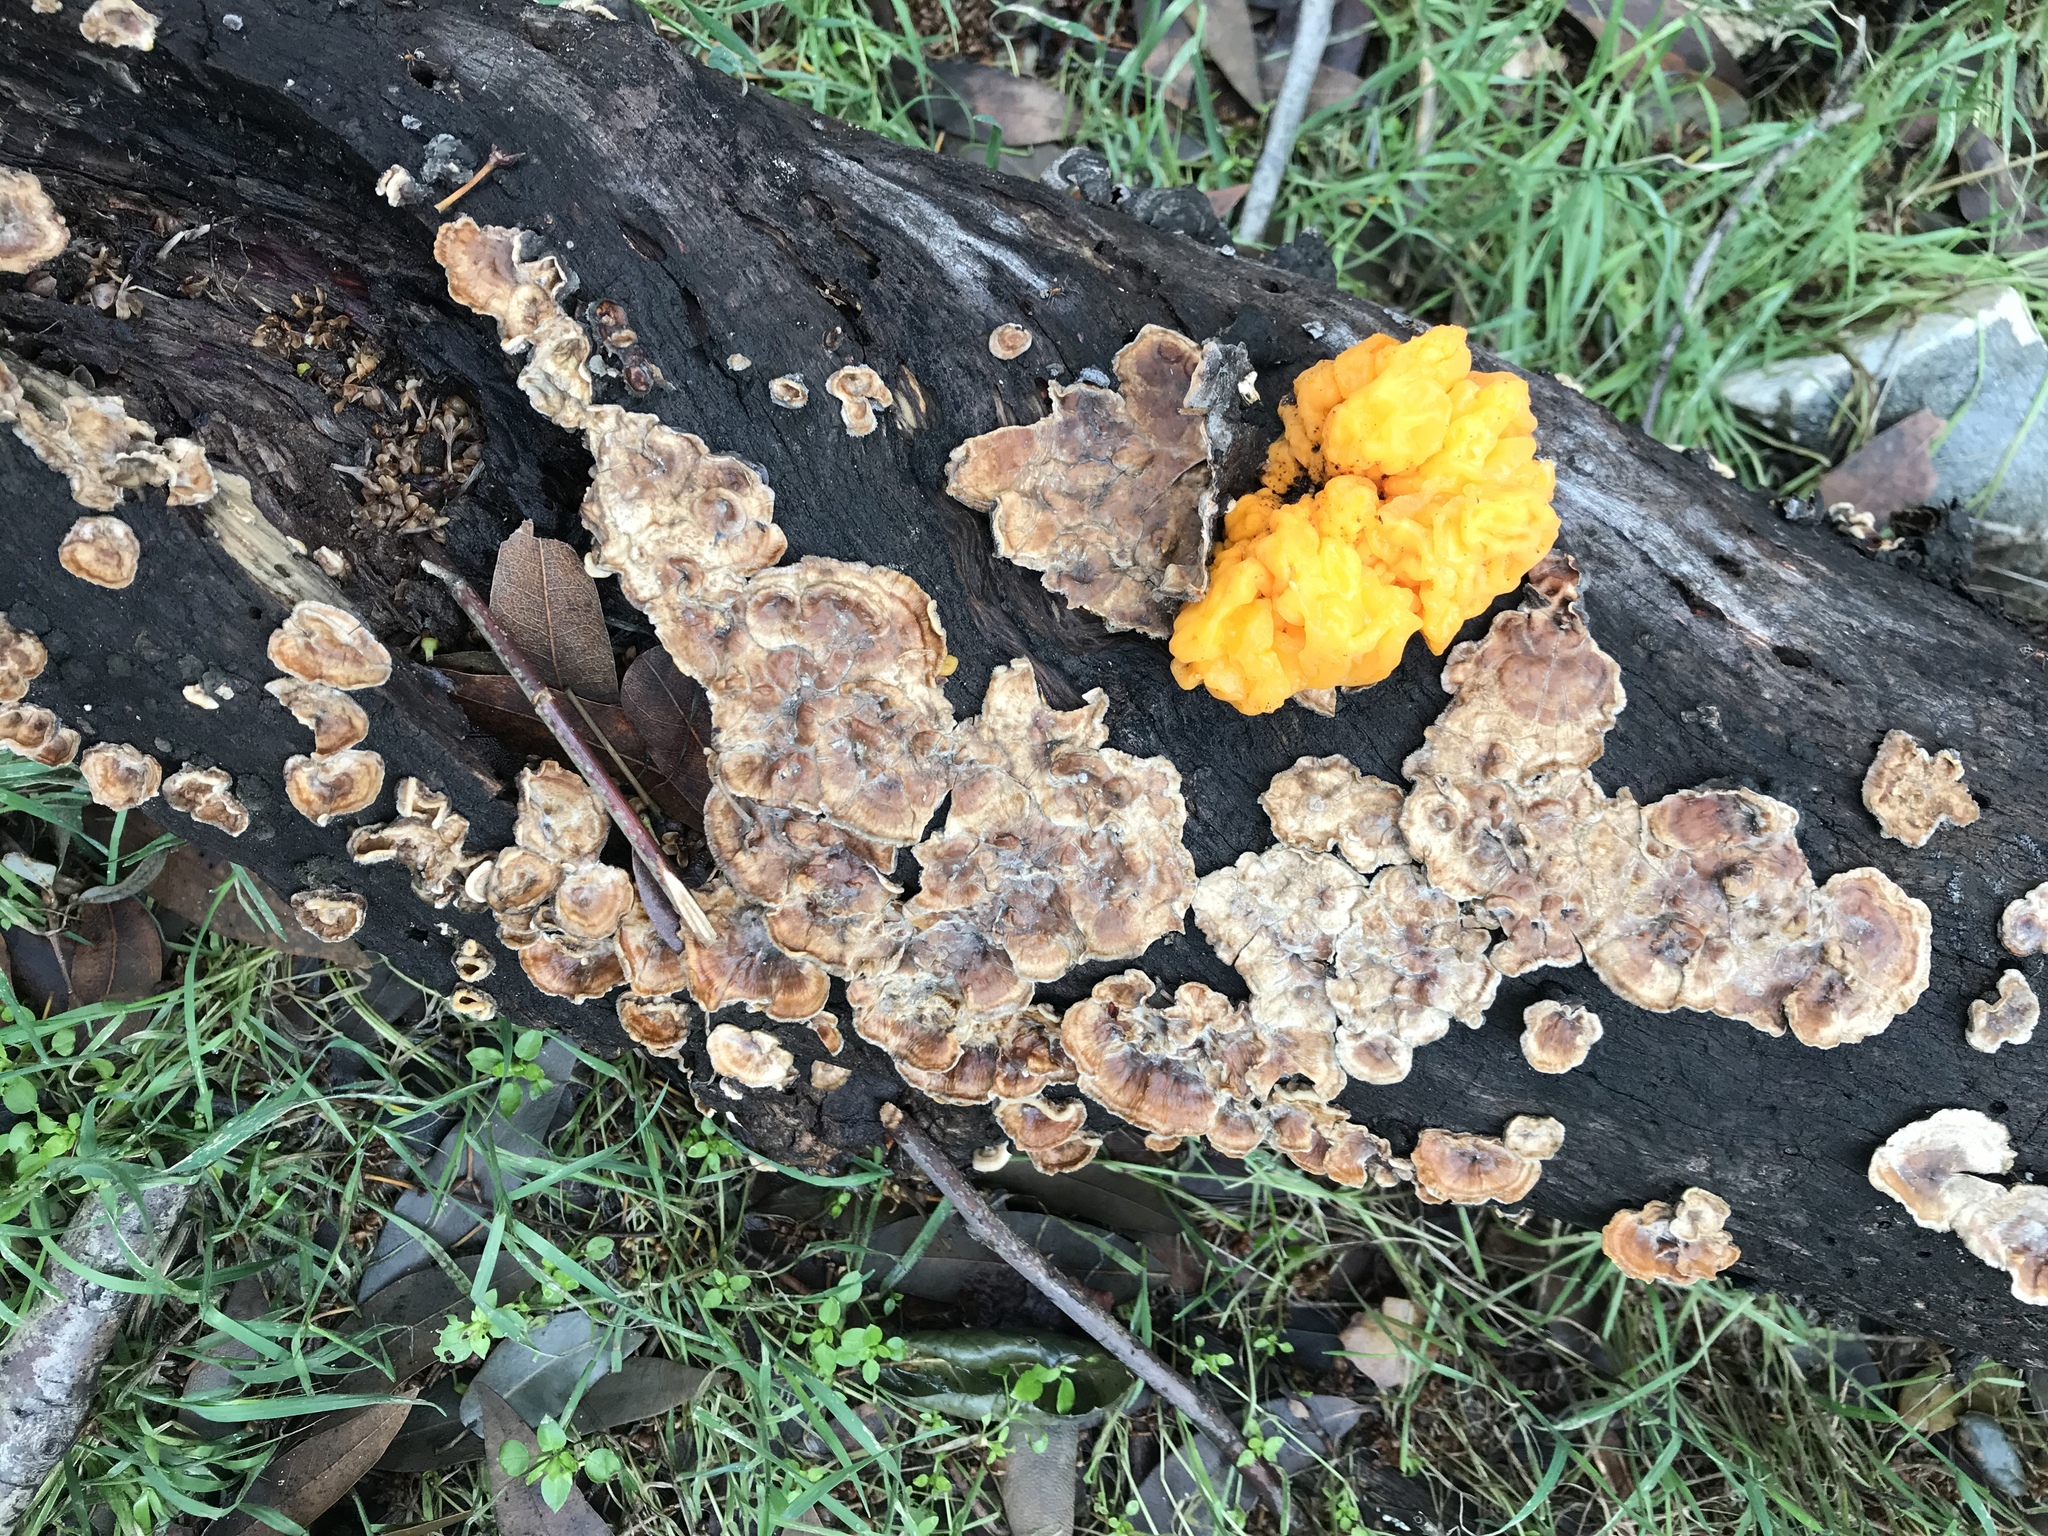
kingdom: Fungi
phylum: Basidiomycota
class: Tremellomycetes
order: Tremellales
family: Naemateliaceae
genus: Naematelia
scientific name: Naematelia aurantia
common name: Golden ear
